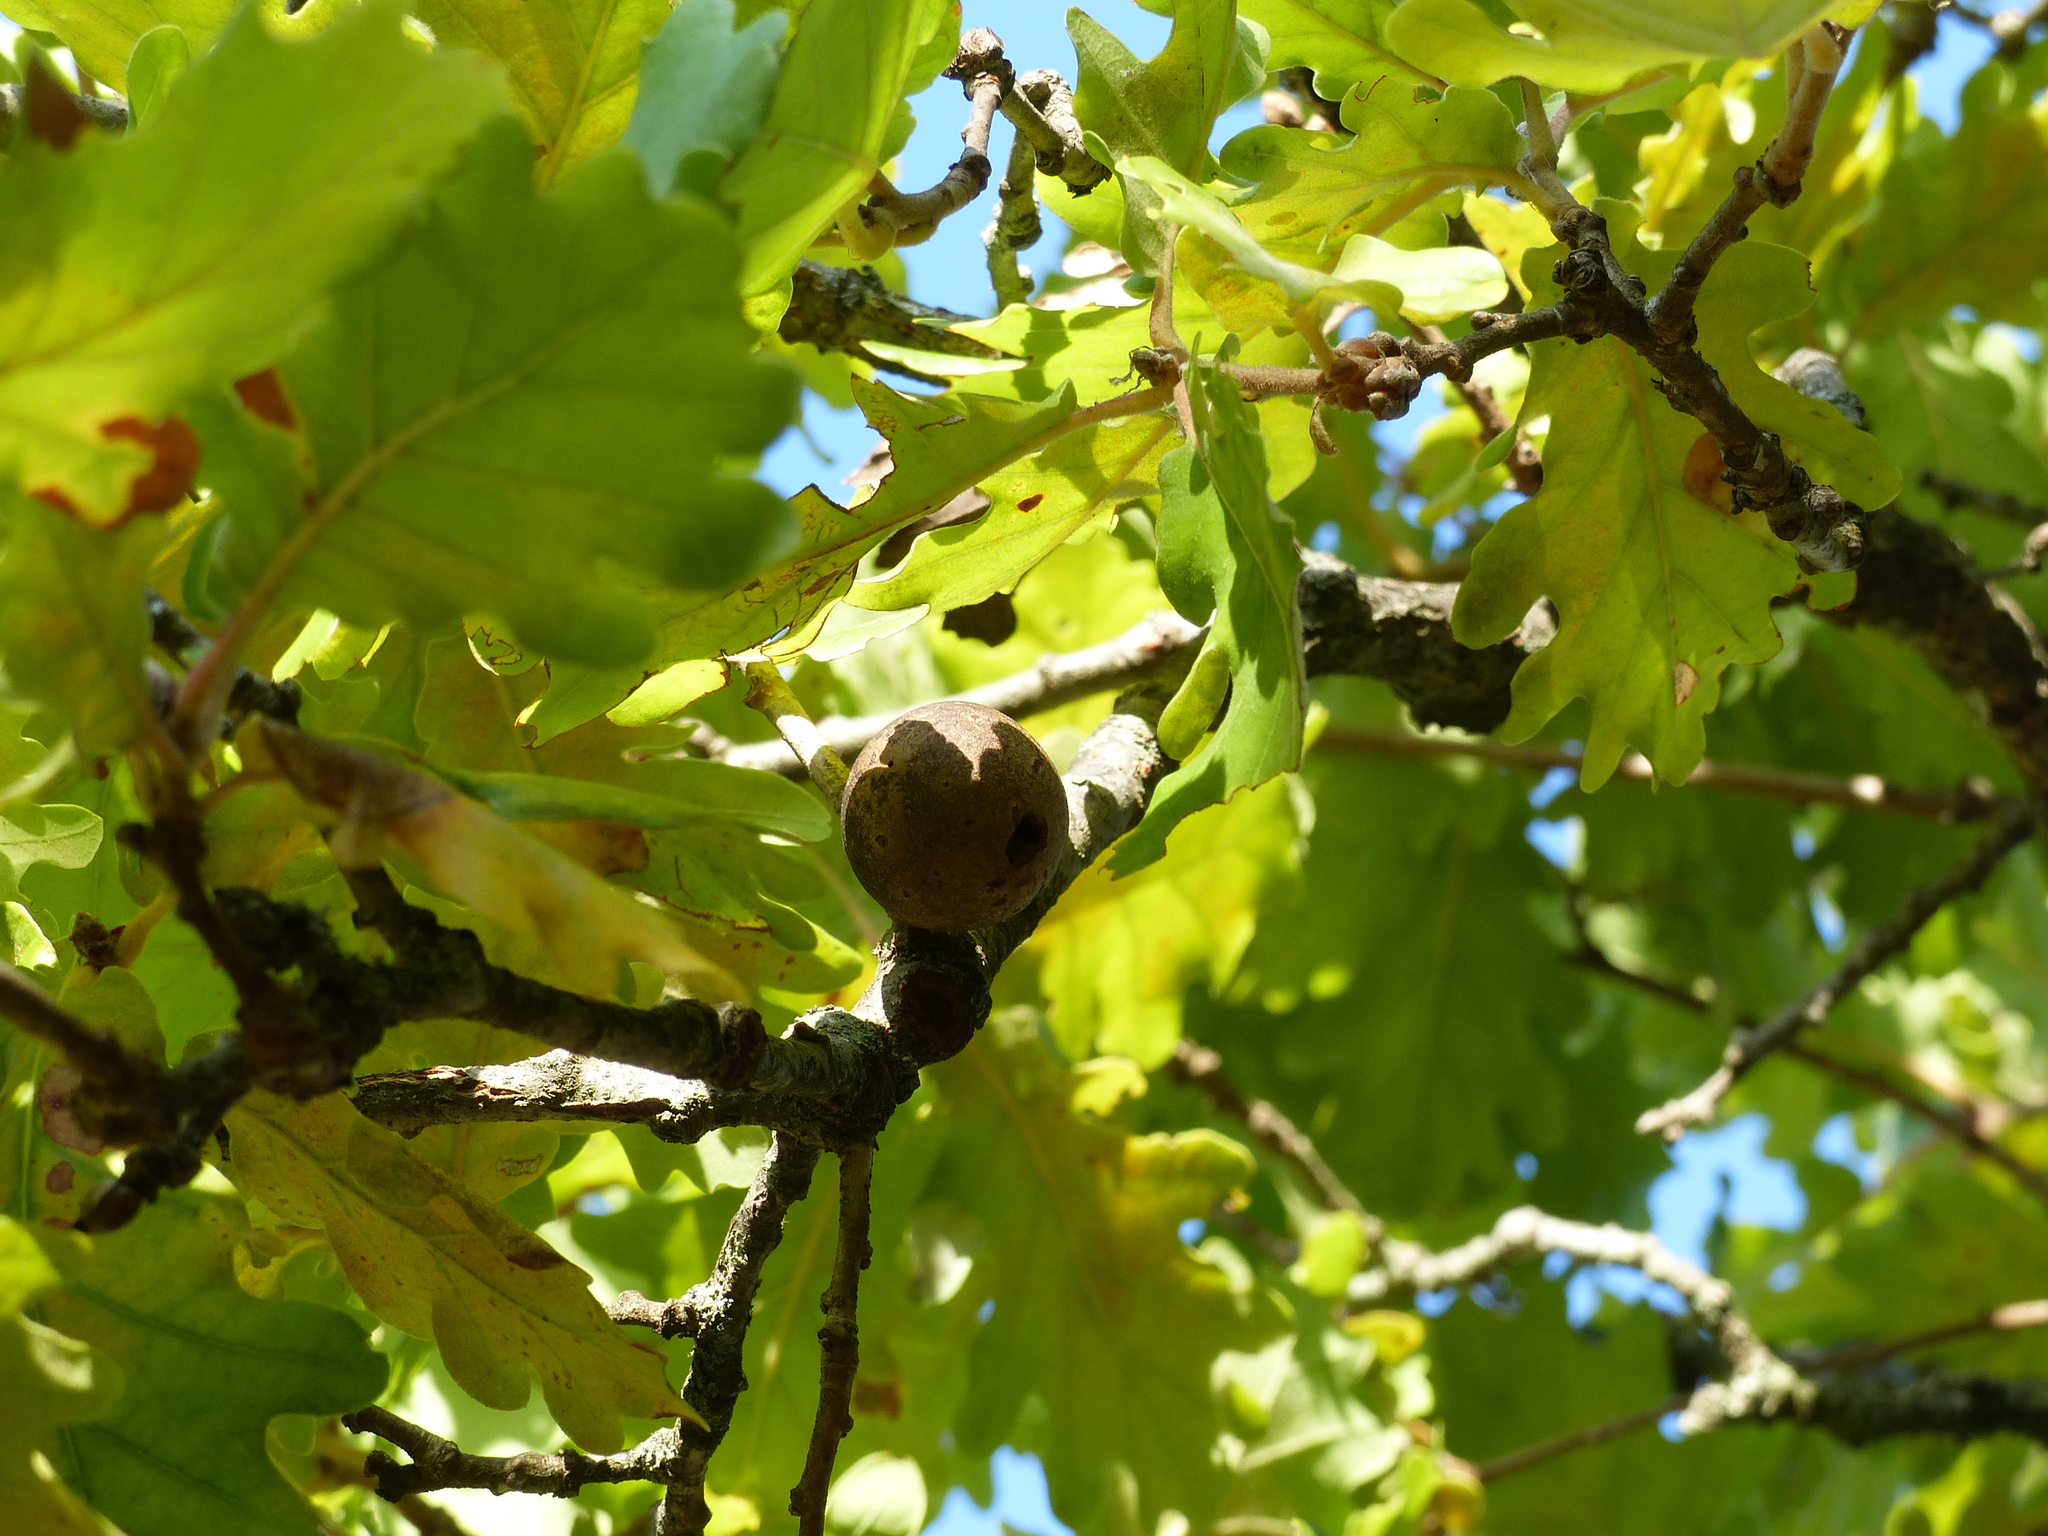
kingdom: Animalia
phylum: Arthropoda
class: Insecta
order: Hymenoptera
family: Cynipidae
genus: Andricus
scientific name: Andricus kollari
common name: Marble gall
